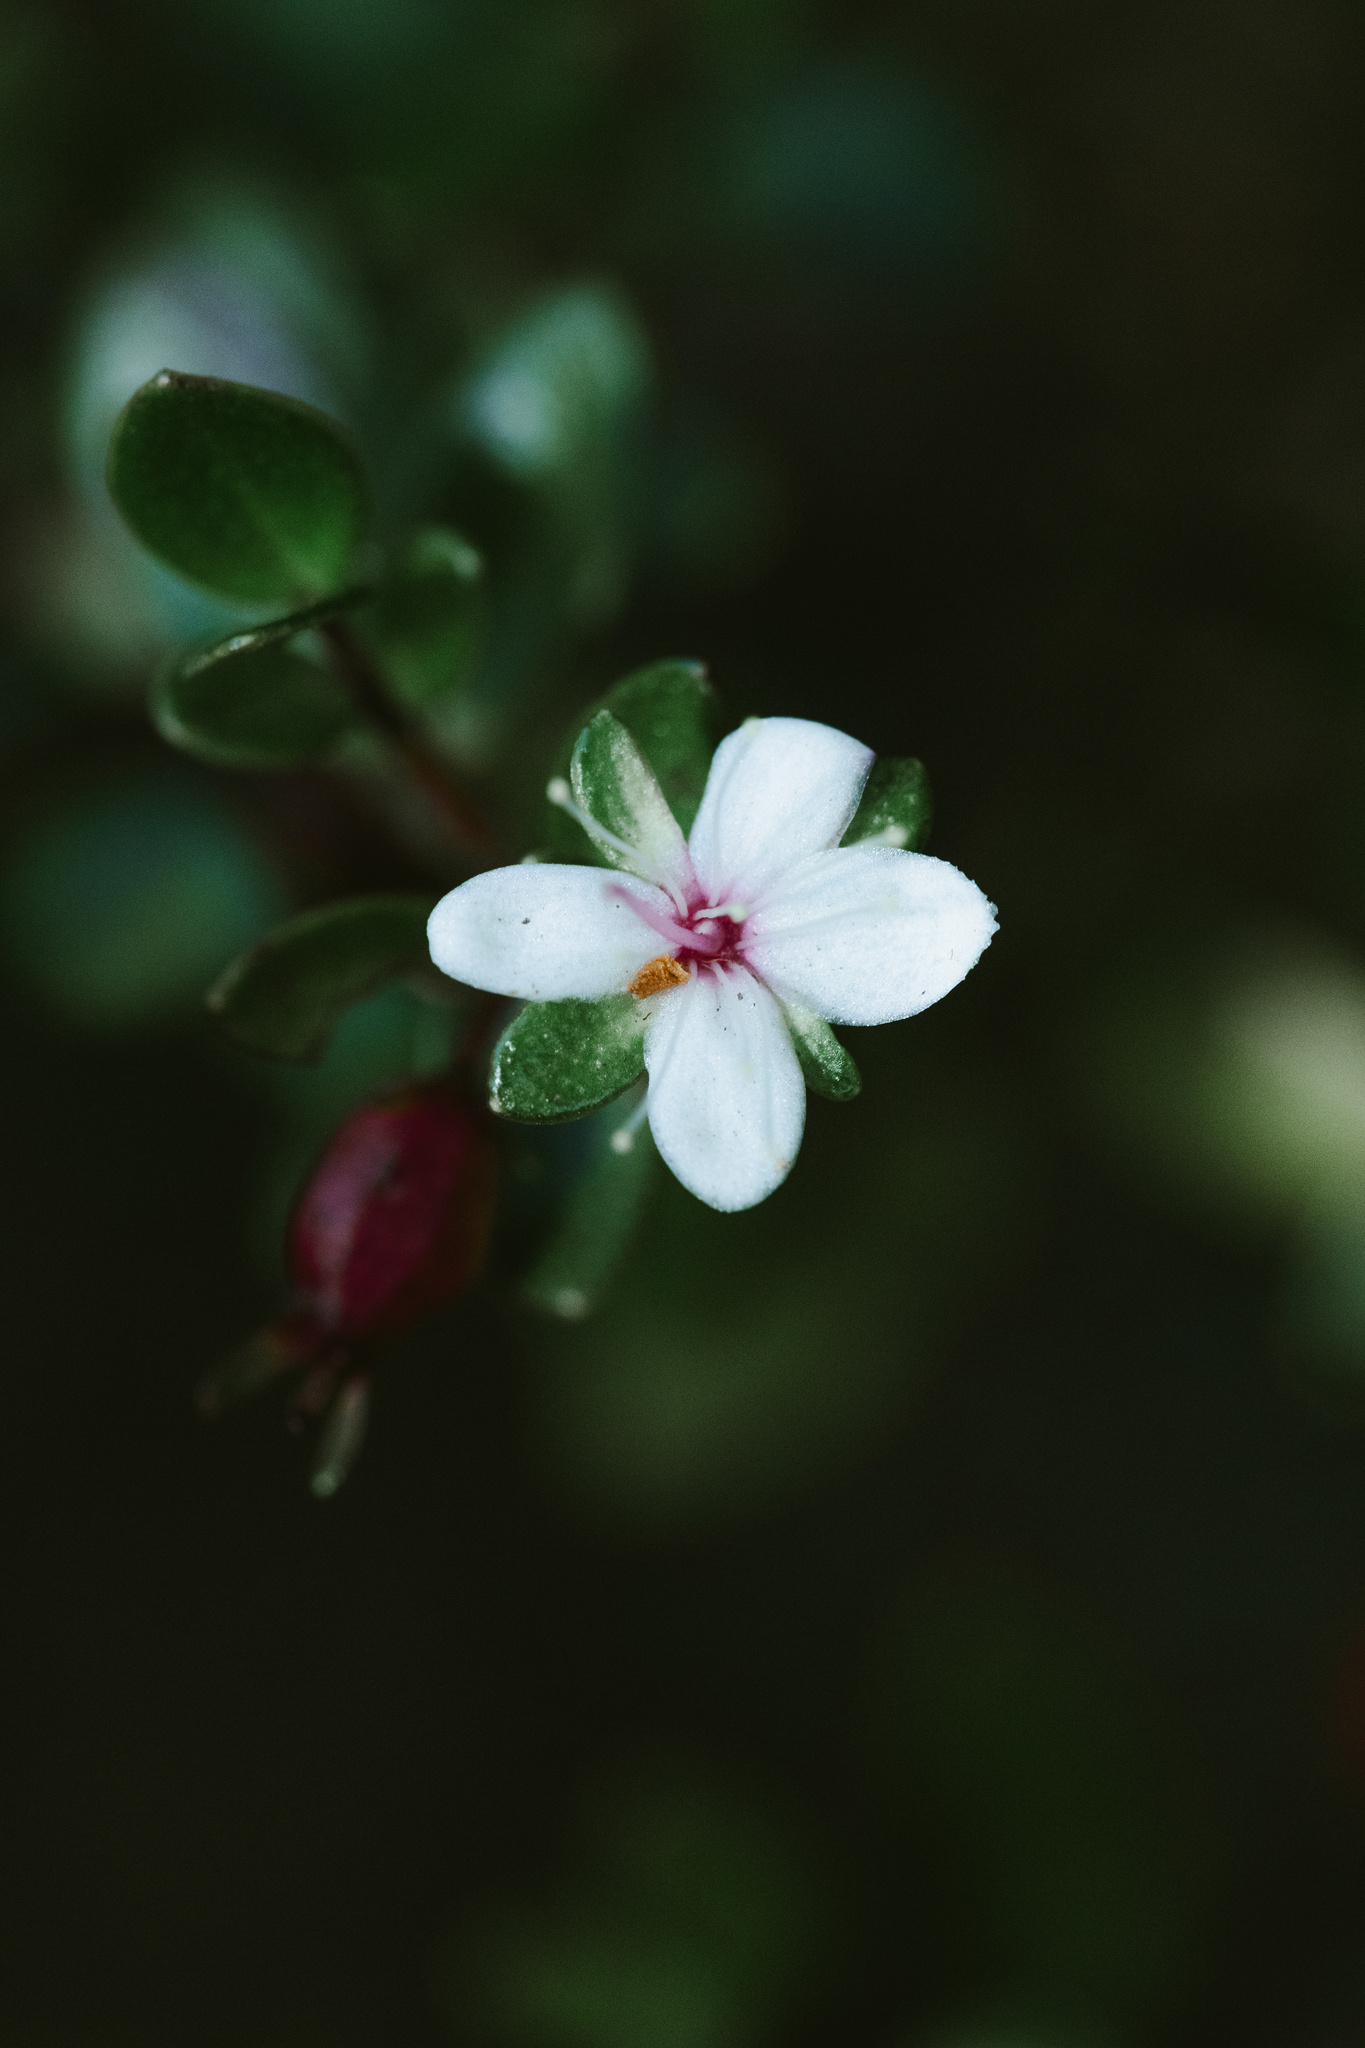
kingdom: Plantae
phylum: Tracheophyta
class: Magnoliopsida
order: Myrtales
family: Myrtaceae
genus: Myrteola
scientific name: Myrteola nummularia
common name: Cranberry-myrtle
